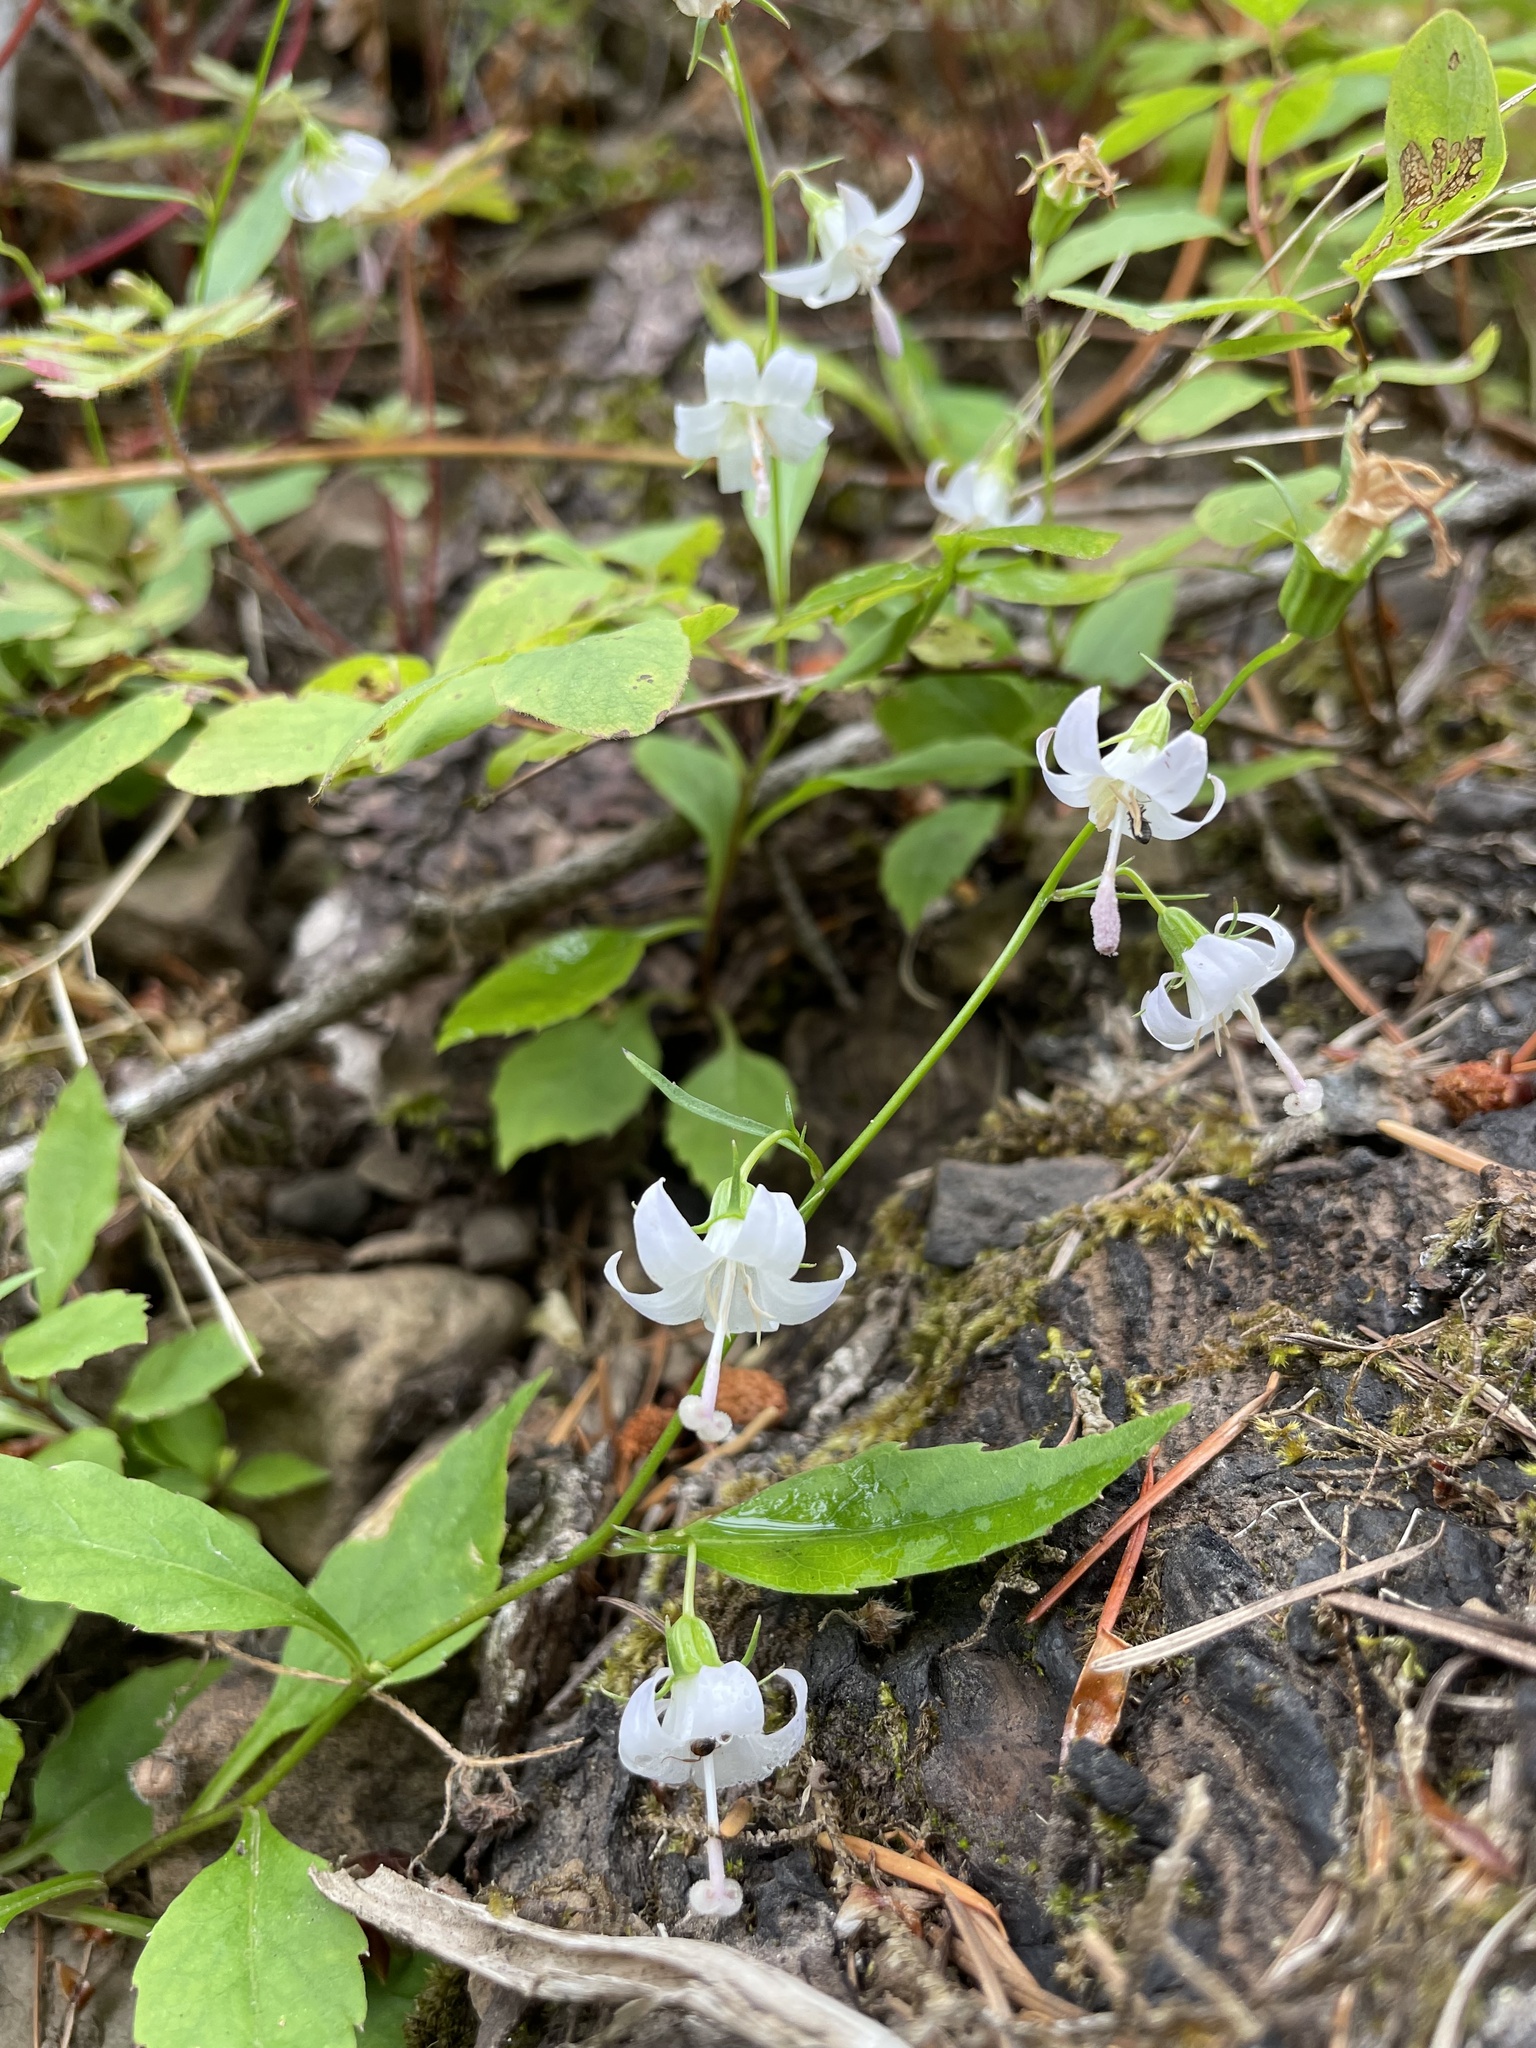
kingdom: Plantae
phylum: Tracheophyta
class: Magnoliopsida
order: Asterales
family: Campanulaceae
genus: Campanula
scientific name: Campanula scouleri
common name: Scouler's harebell
